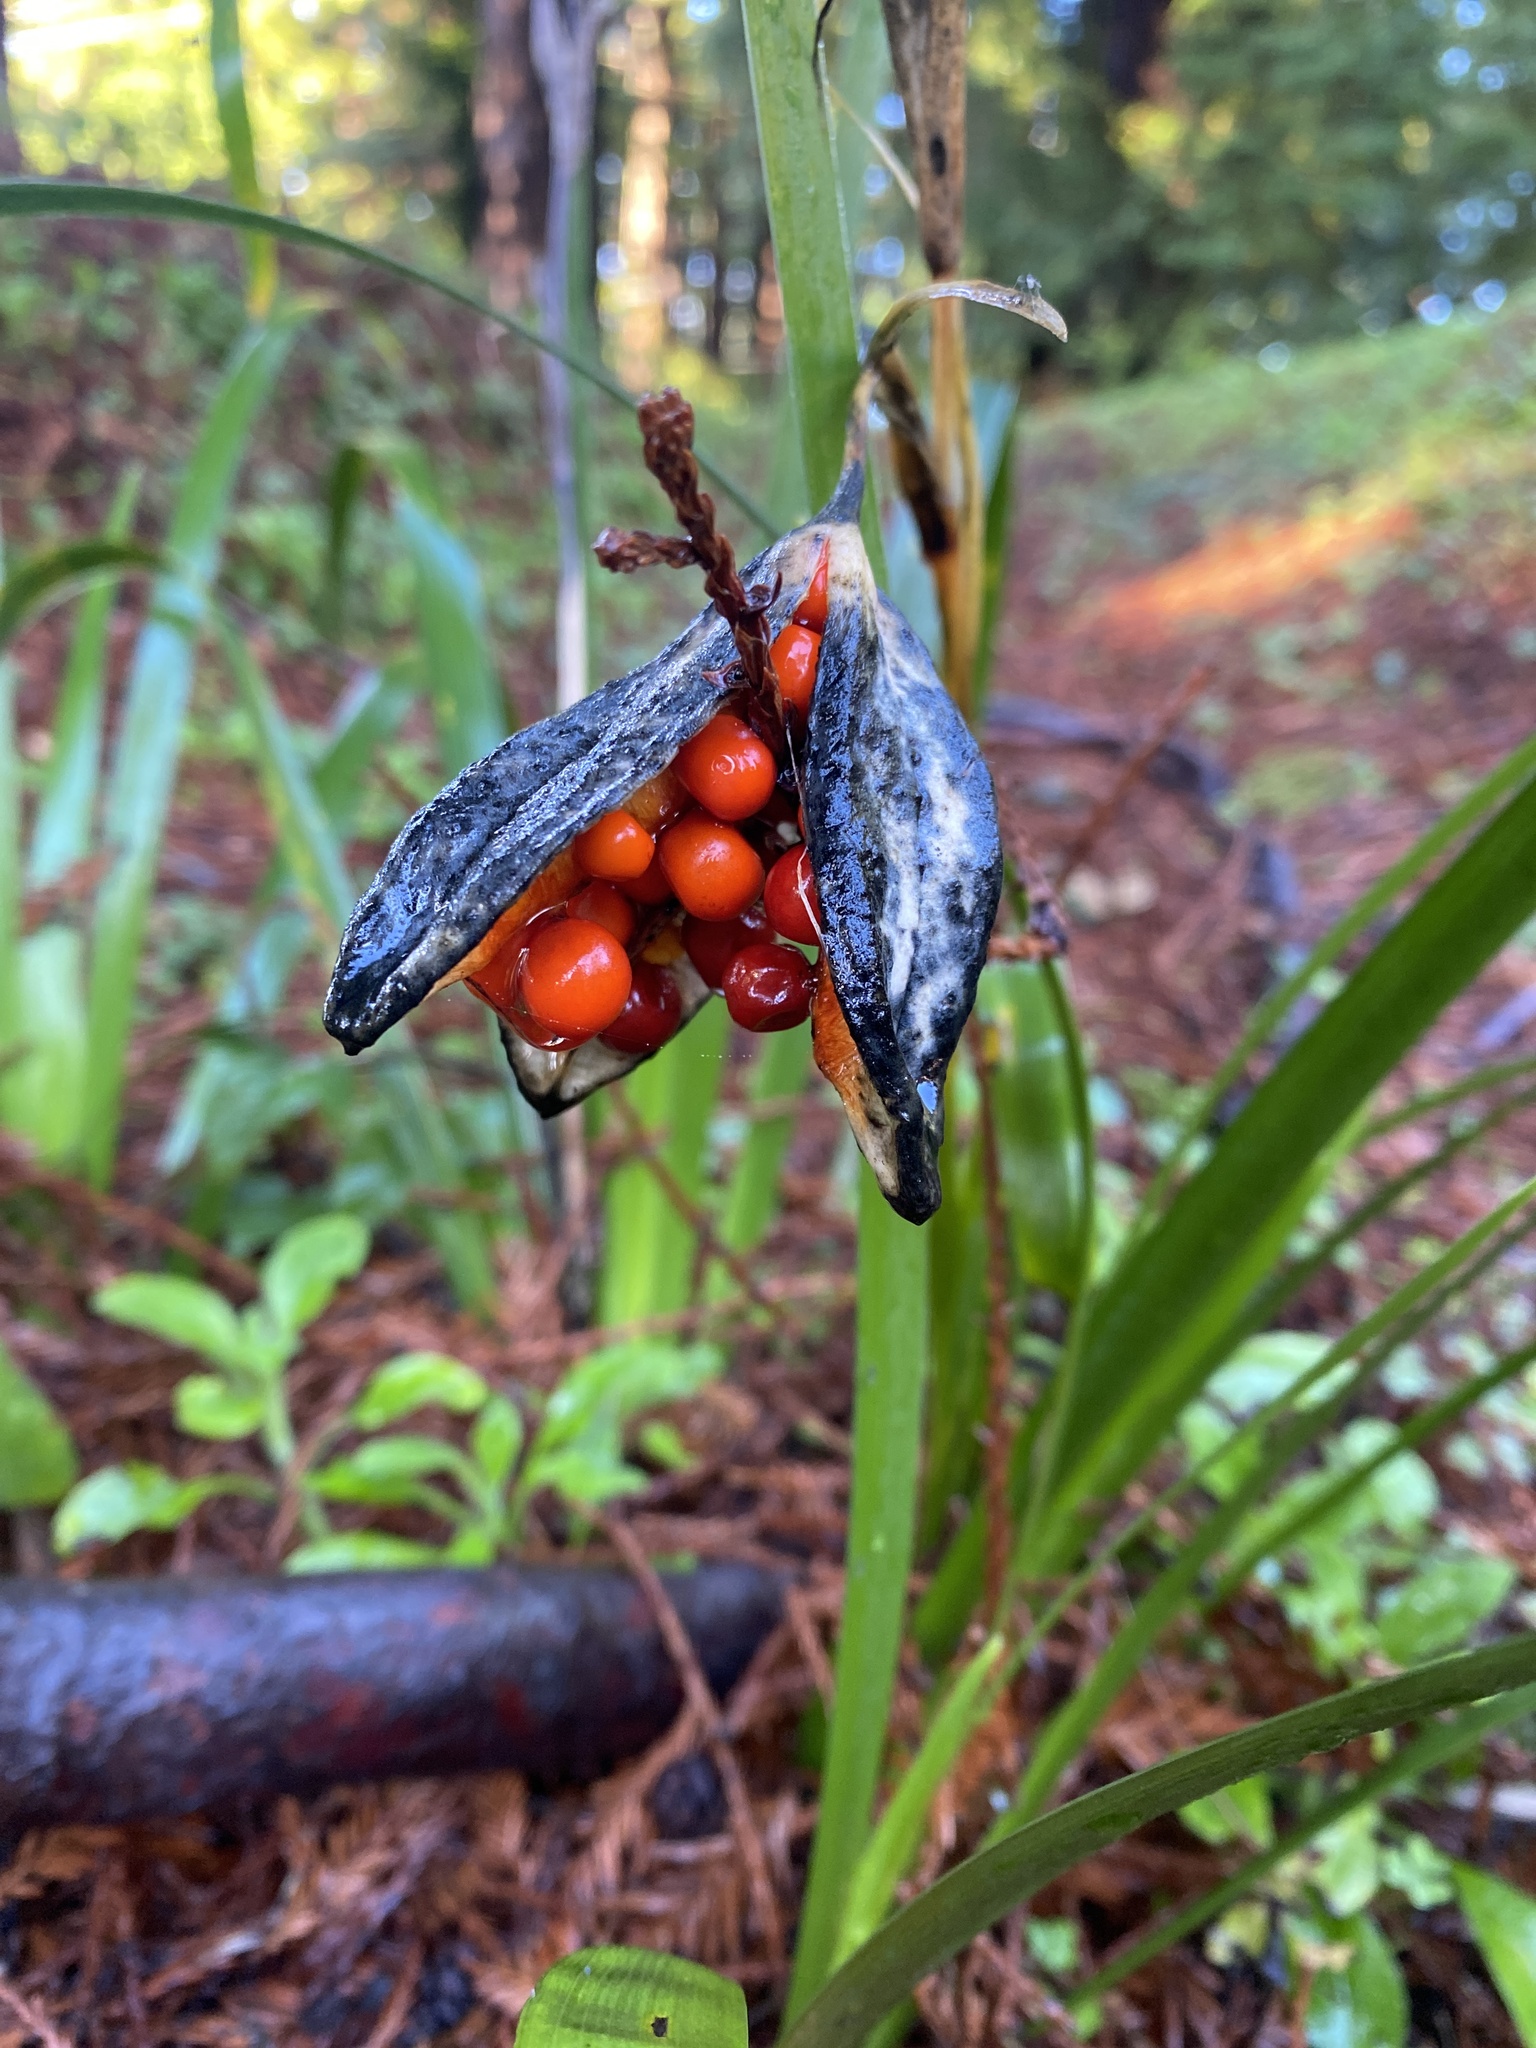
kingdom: Plantae
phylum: Tracheophyta
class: Liliopsida
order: Asparagales
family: Iridaceae
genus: Iris
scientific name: Iris foetidissima
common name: Stinking iris
